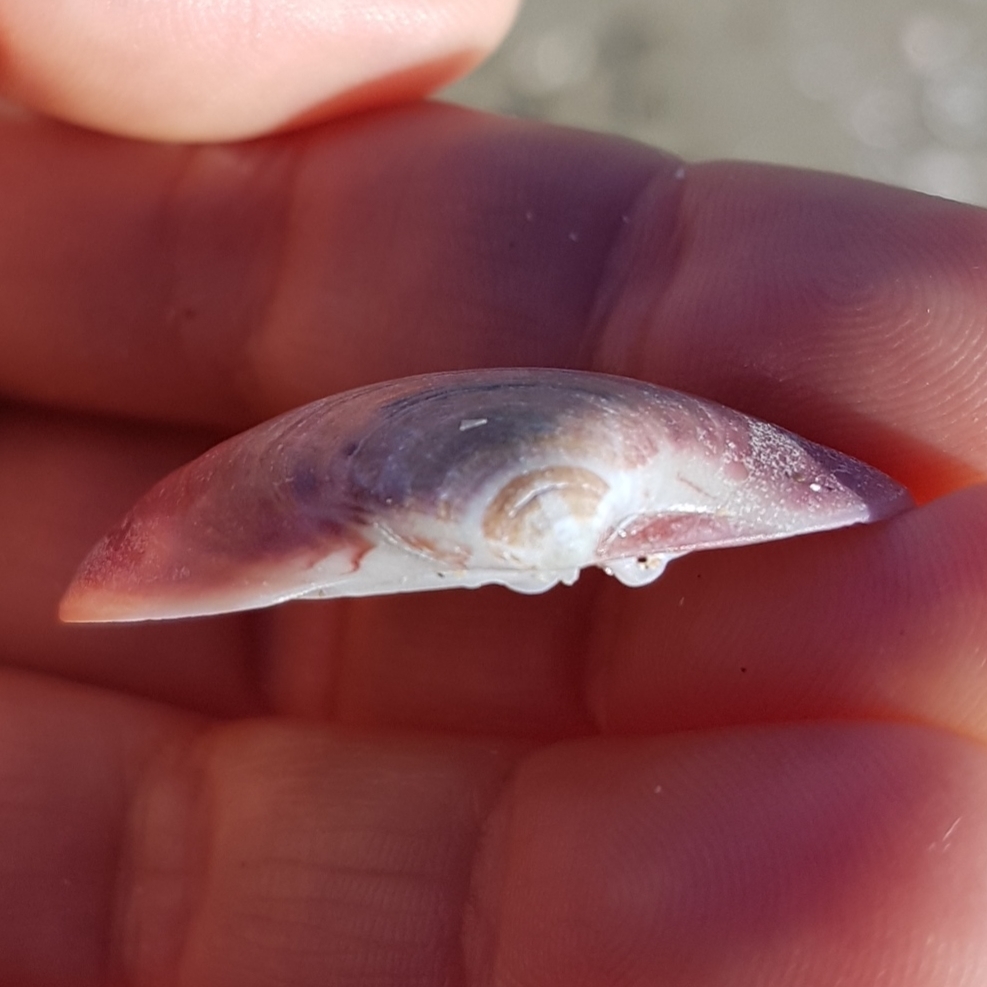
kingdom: Animalia
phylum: Mollusca
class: Bivalvia
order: Venerida
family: Veneridae
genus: Callista
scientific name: Callista chione
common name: Brown venus
